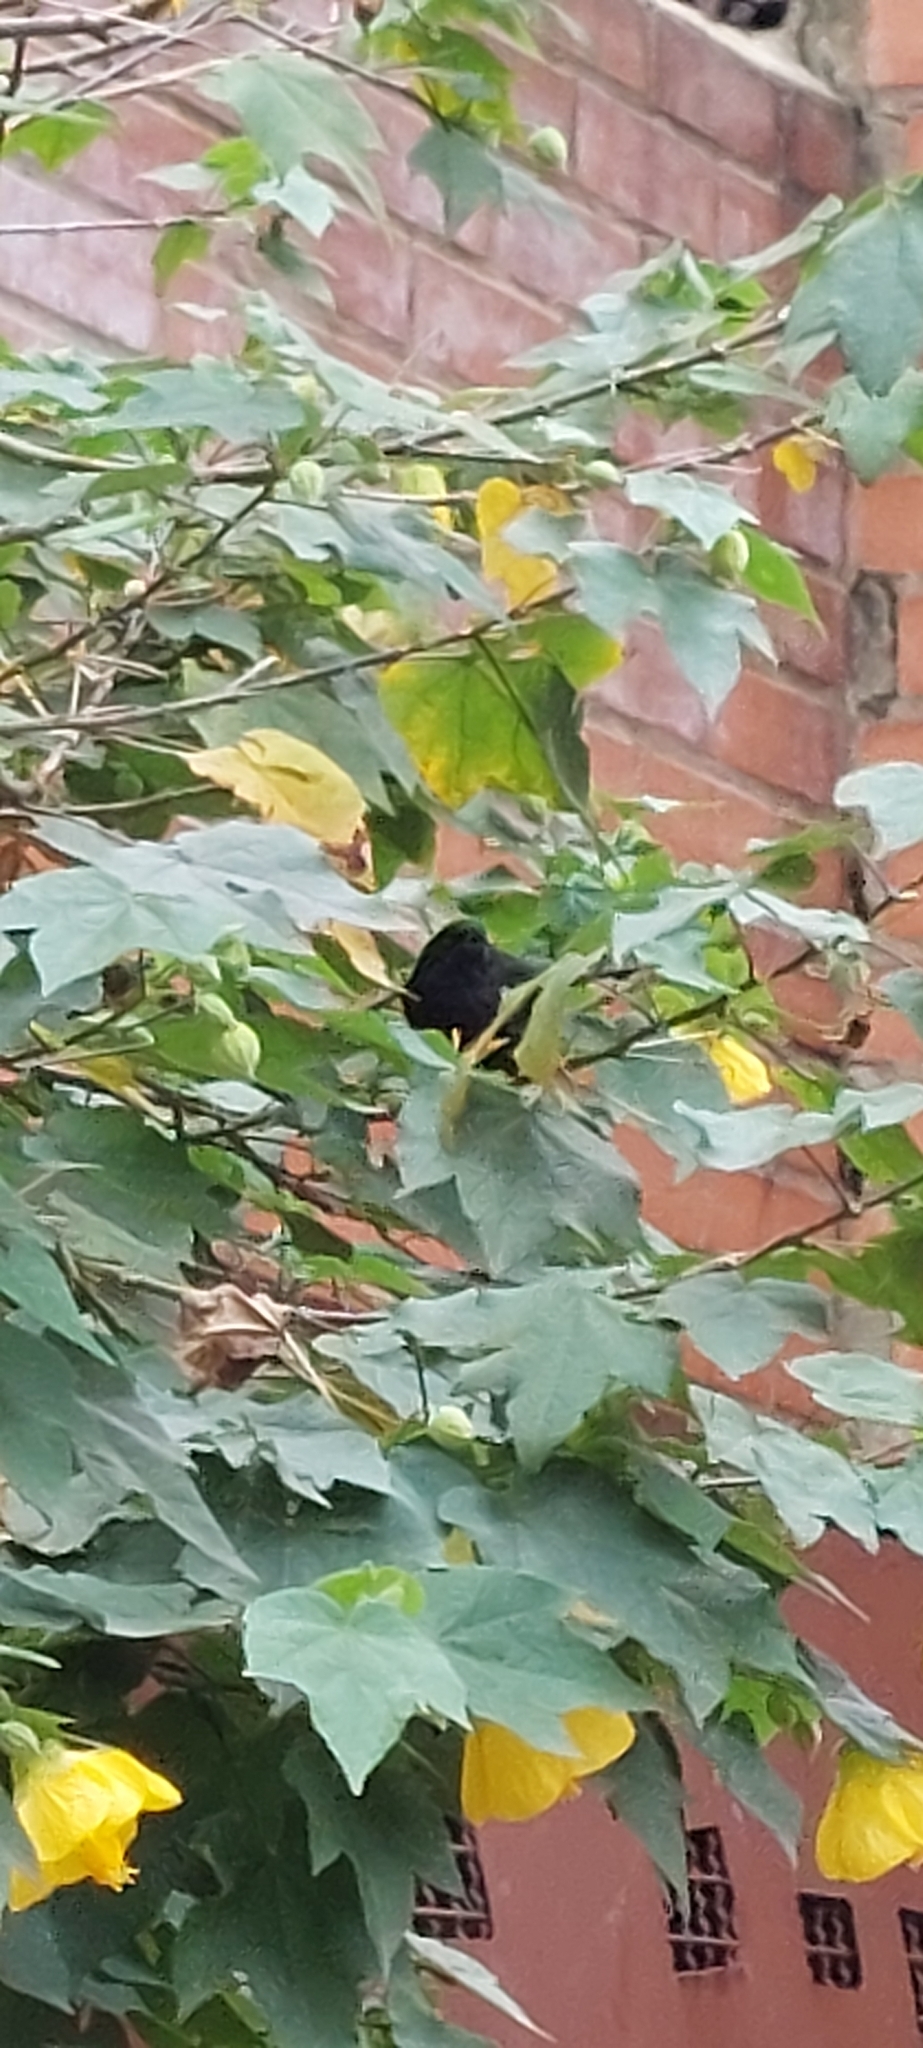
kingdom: Animalia
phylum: Chordata
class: Aves
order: Passeriformes
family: Thraupidae
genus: Diglossa
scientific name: Diglossa humeralis
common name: Black flowerpiercer
